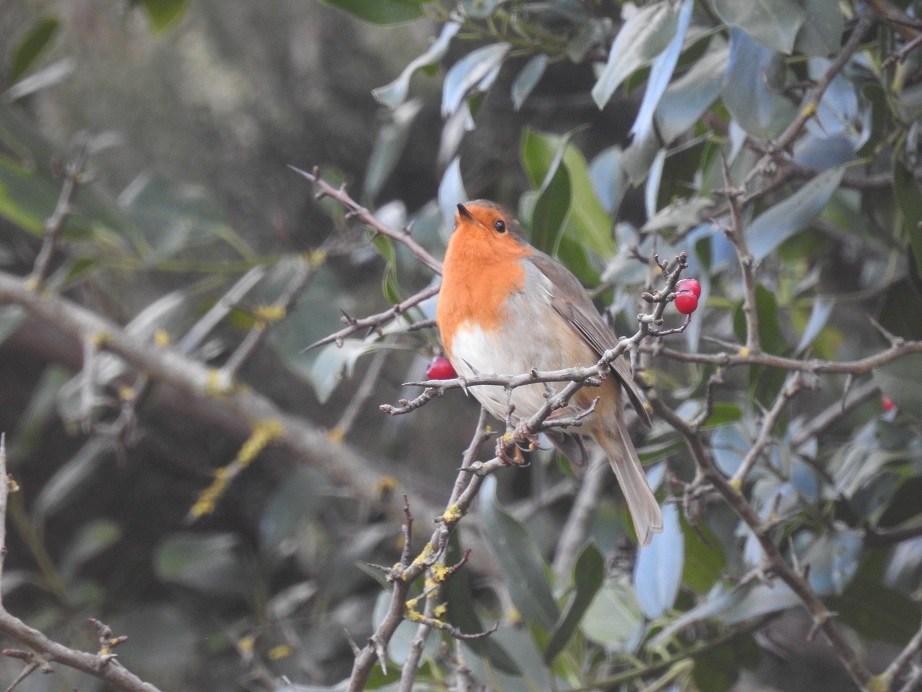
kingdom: Animalia
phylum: Chordata
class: Aves
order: Passeriformes
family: Muscicapidae
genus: Erithacus
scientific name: Erithacus rubecula
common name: European robin
